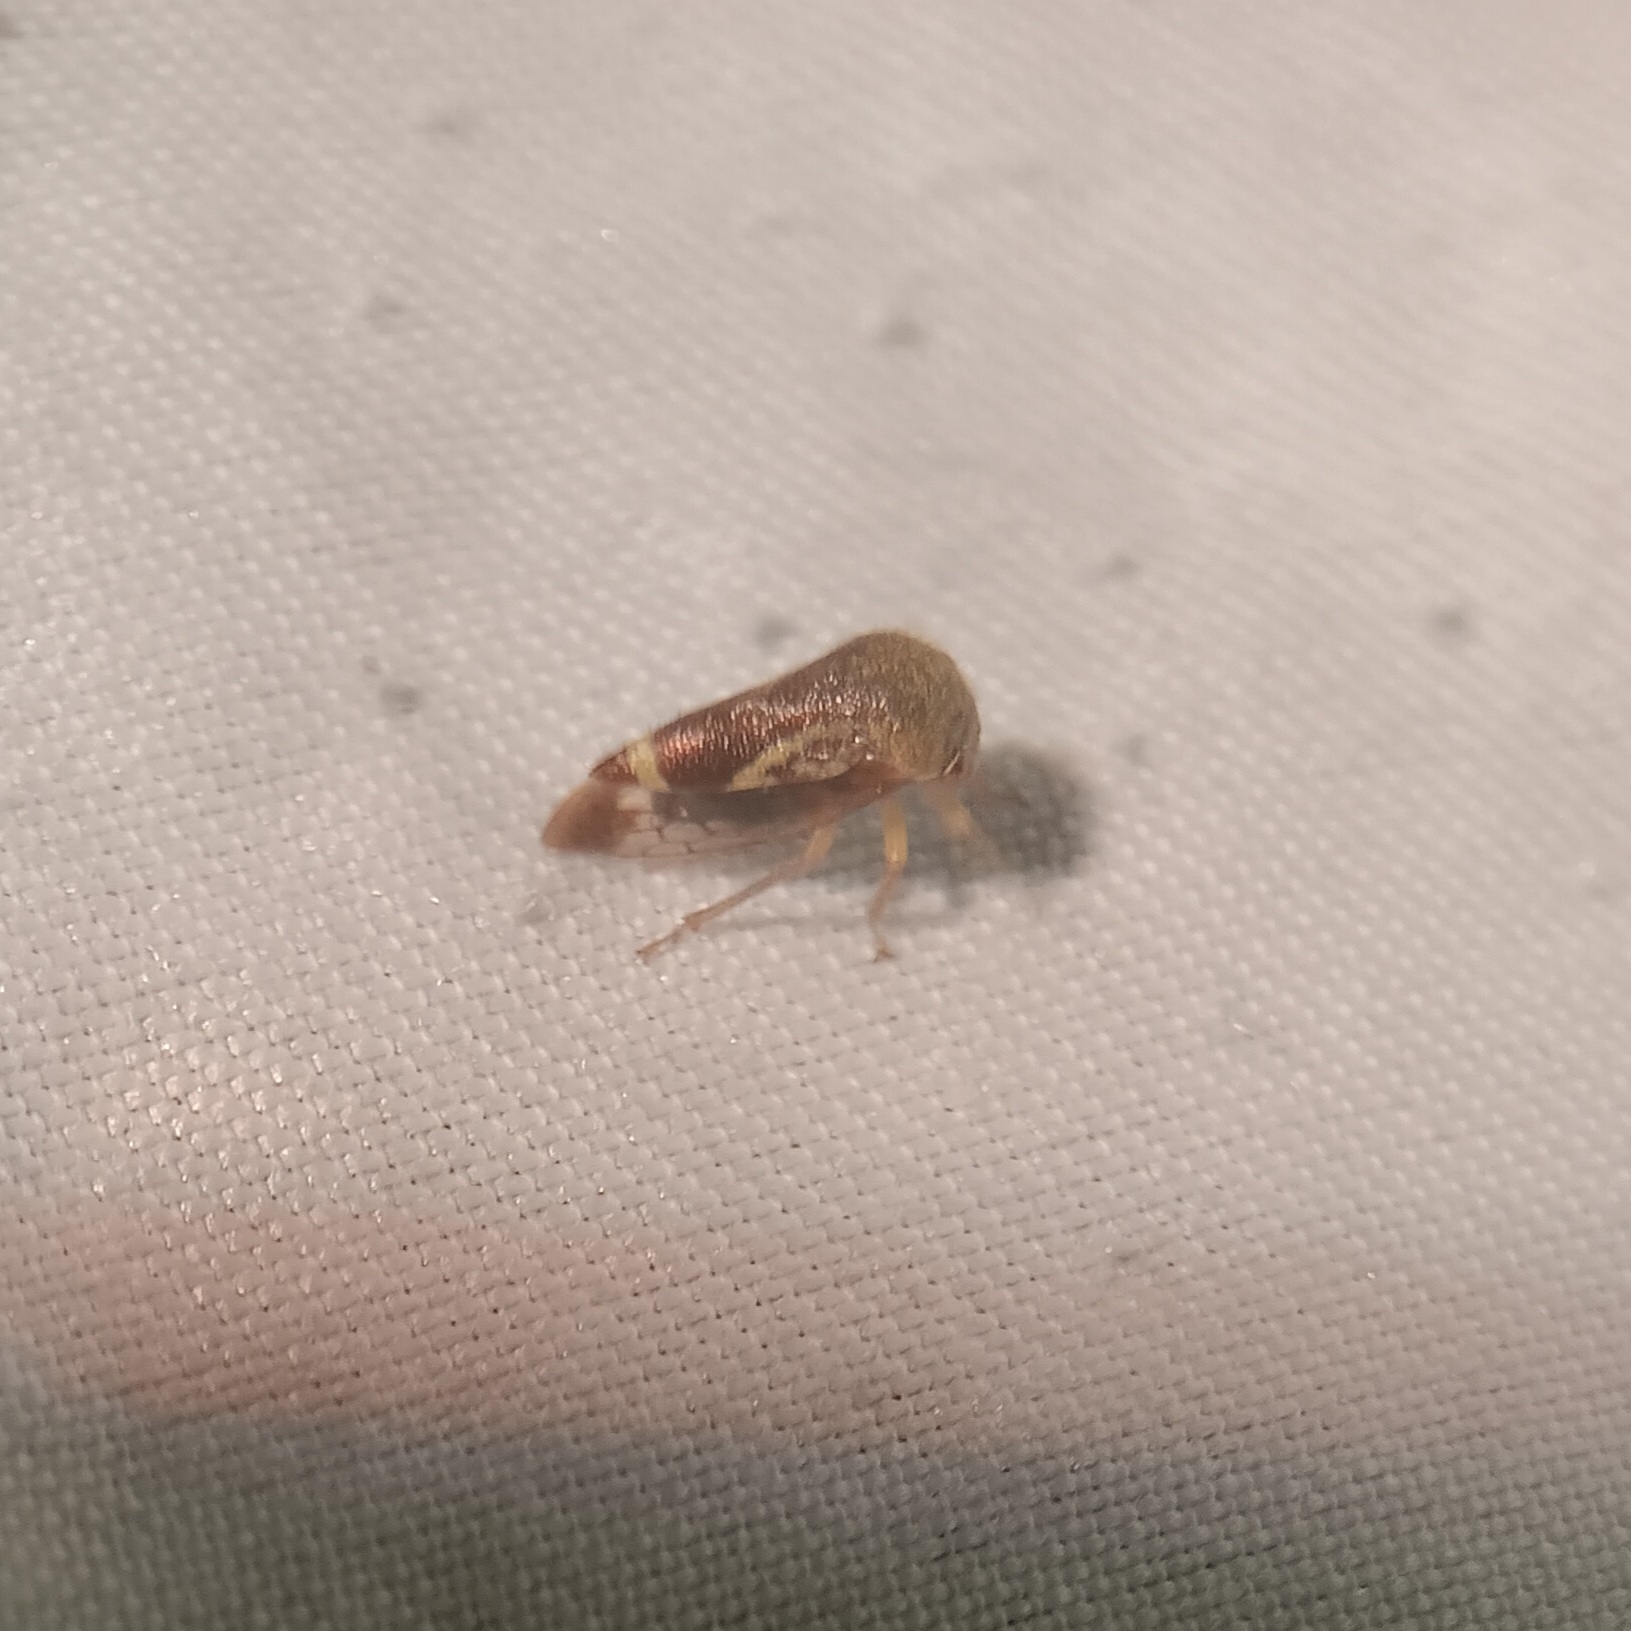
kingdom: Animalia
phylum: Arthropoda
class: Insecta
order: Hemiptera
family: Membracidae
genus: Ophiderma
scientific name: Ophiderma evelyna
